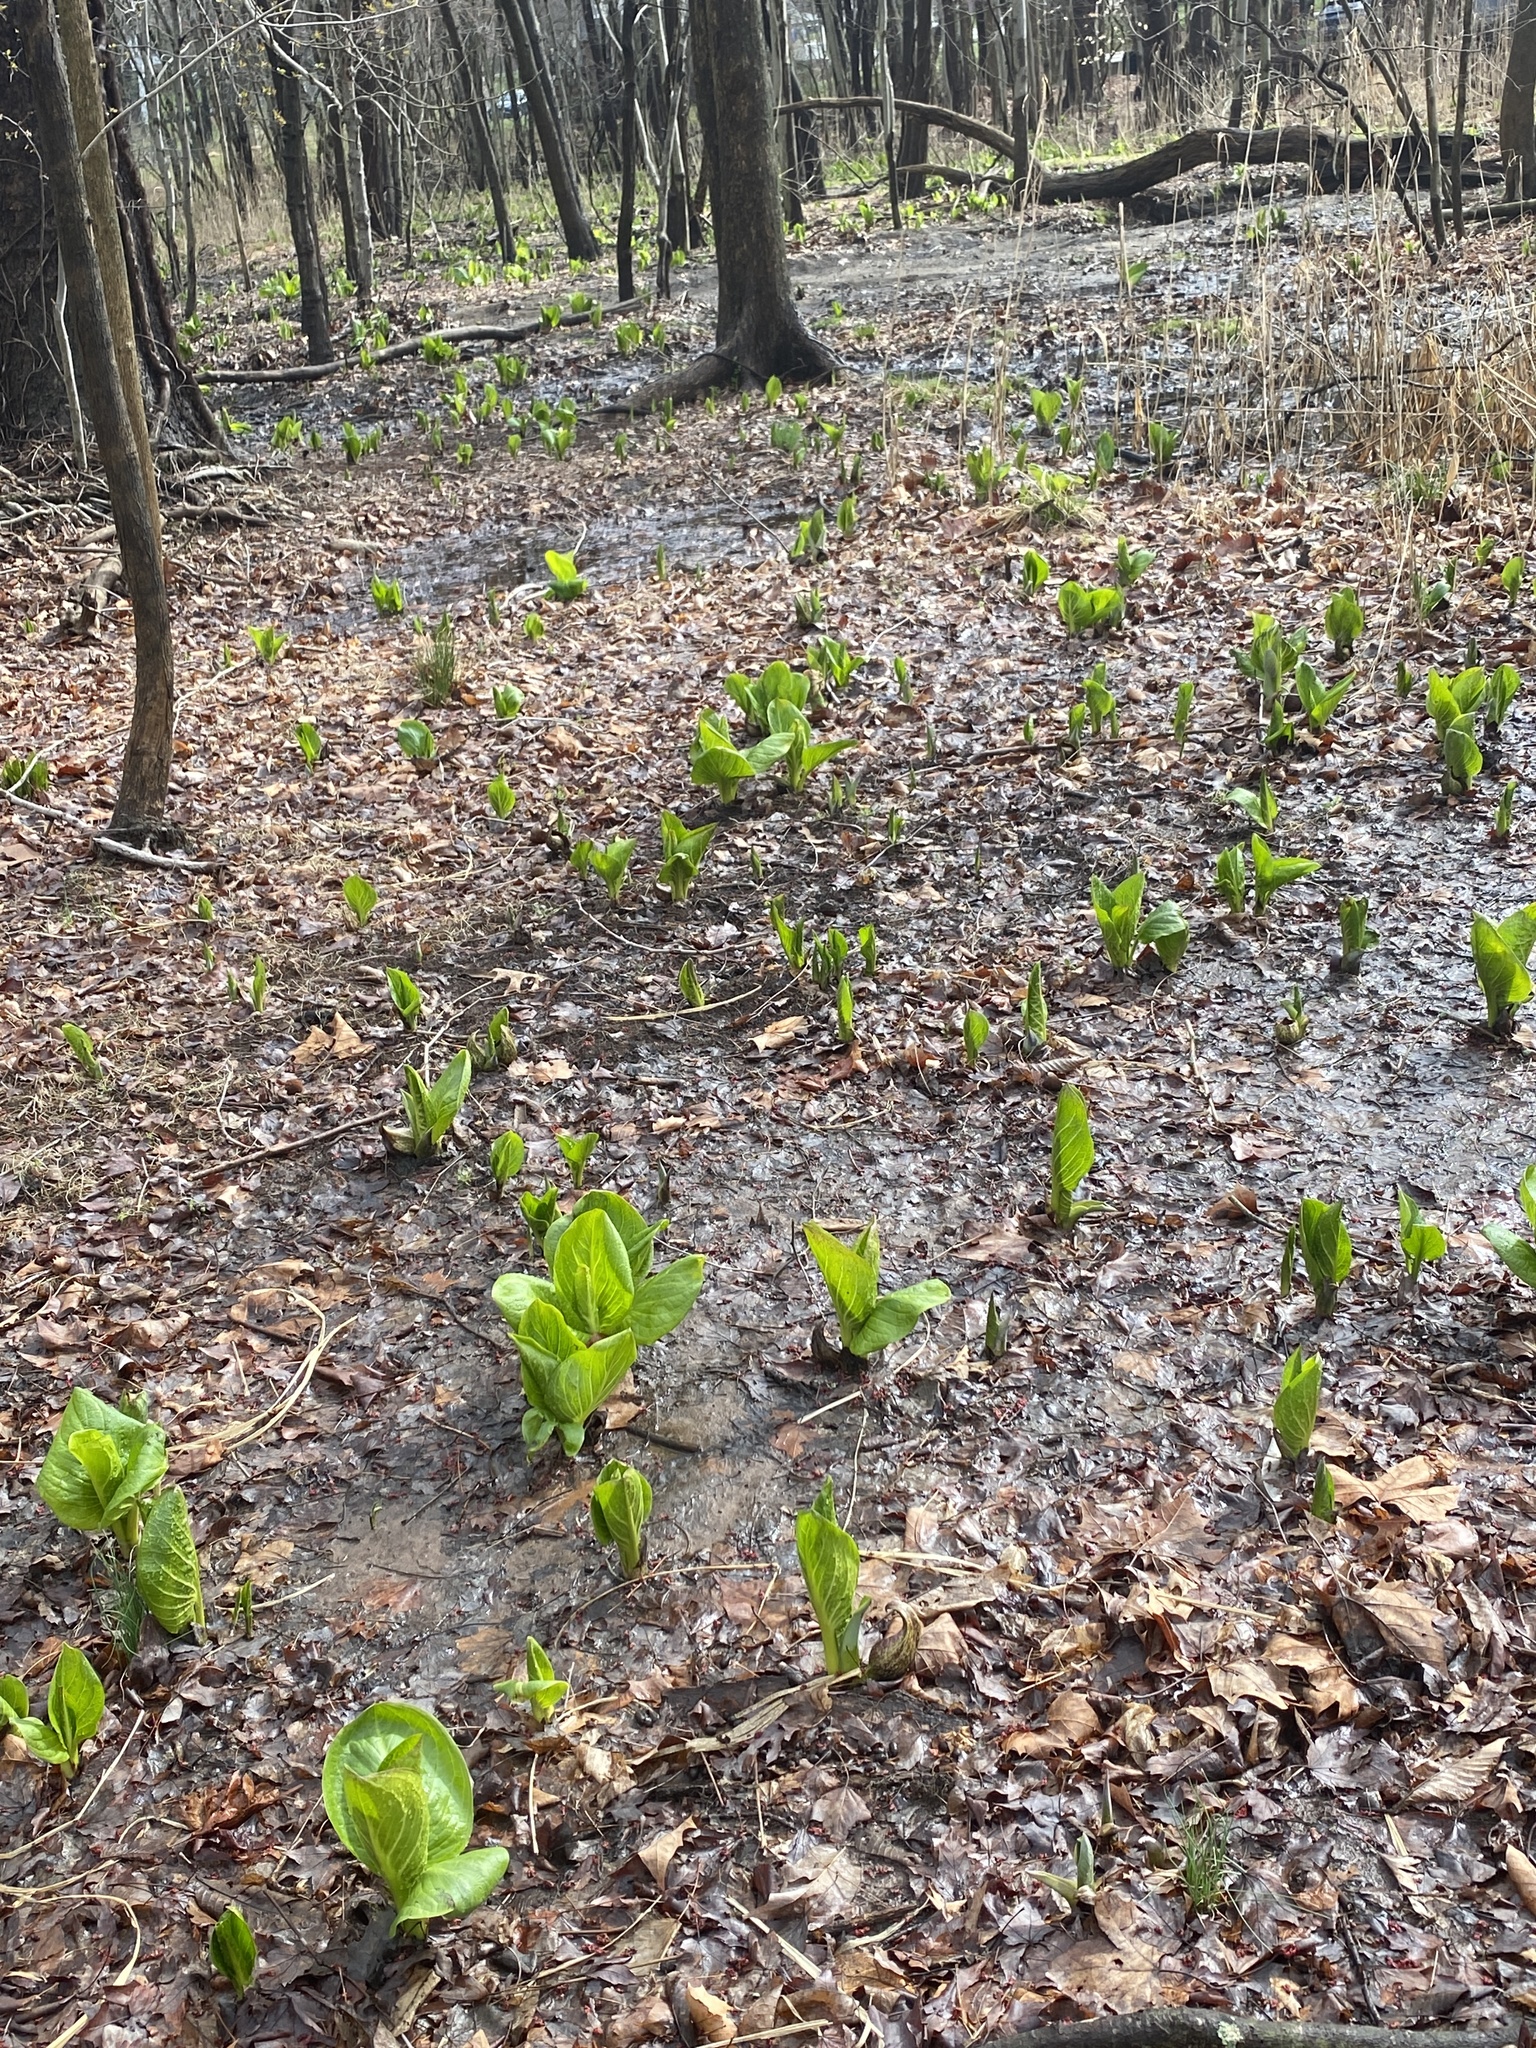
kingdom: Plantae
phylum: Tracheophyta
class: Liliopsida
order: Alismatales
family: Araceae
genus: Symplocarpus
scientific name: Symplocarpus foetidus
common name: Eastern skunk cabbage
